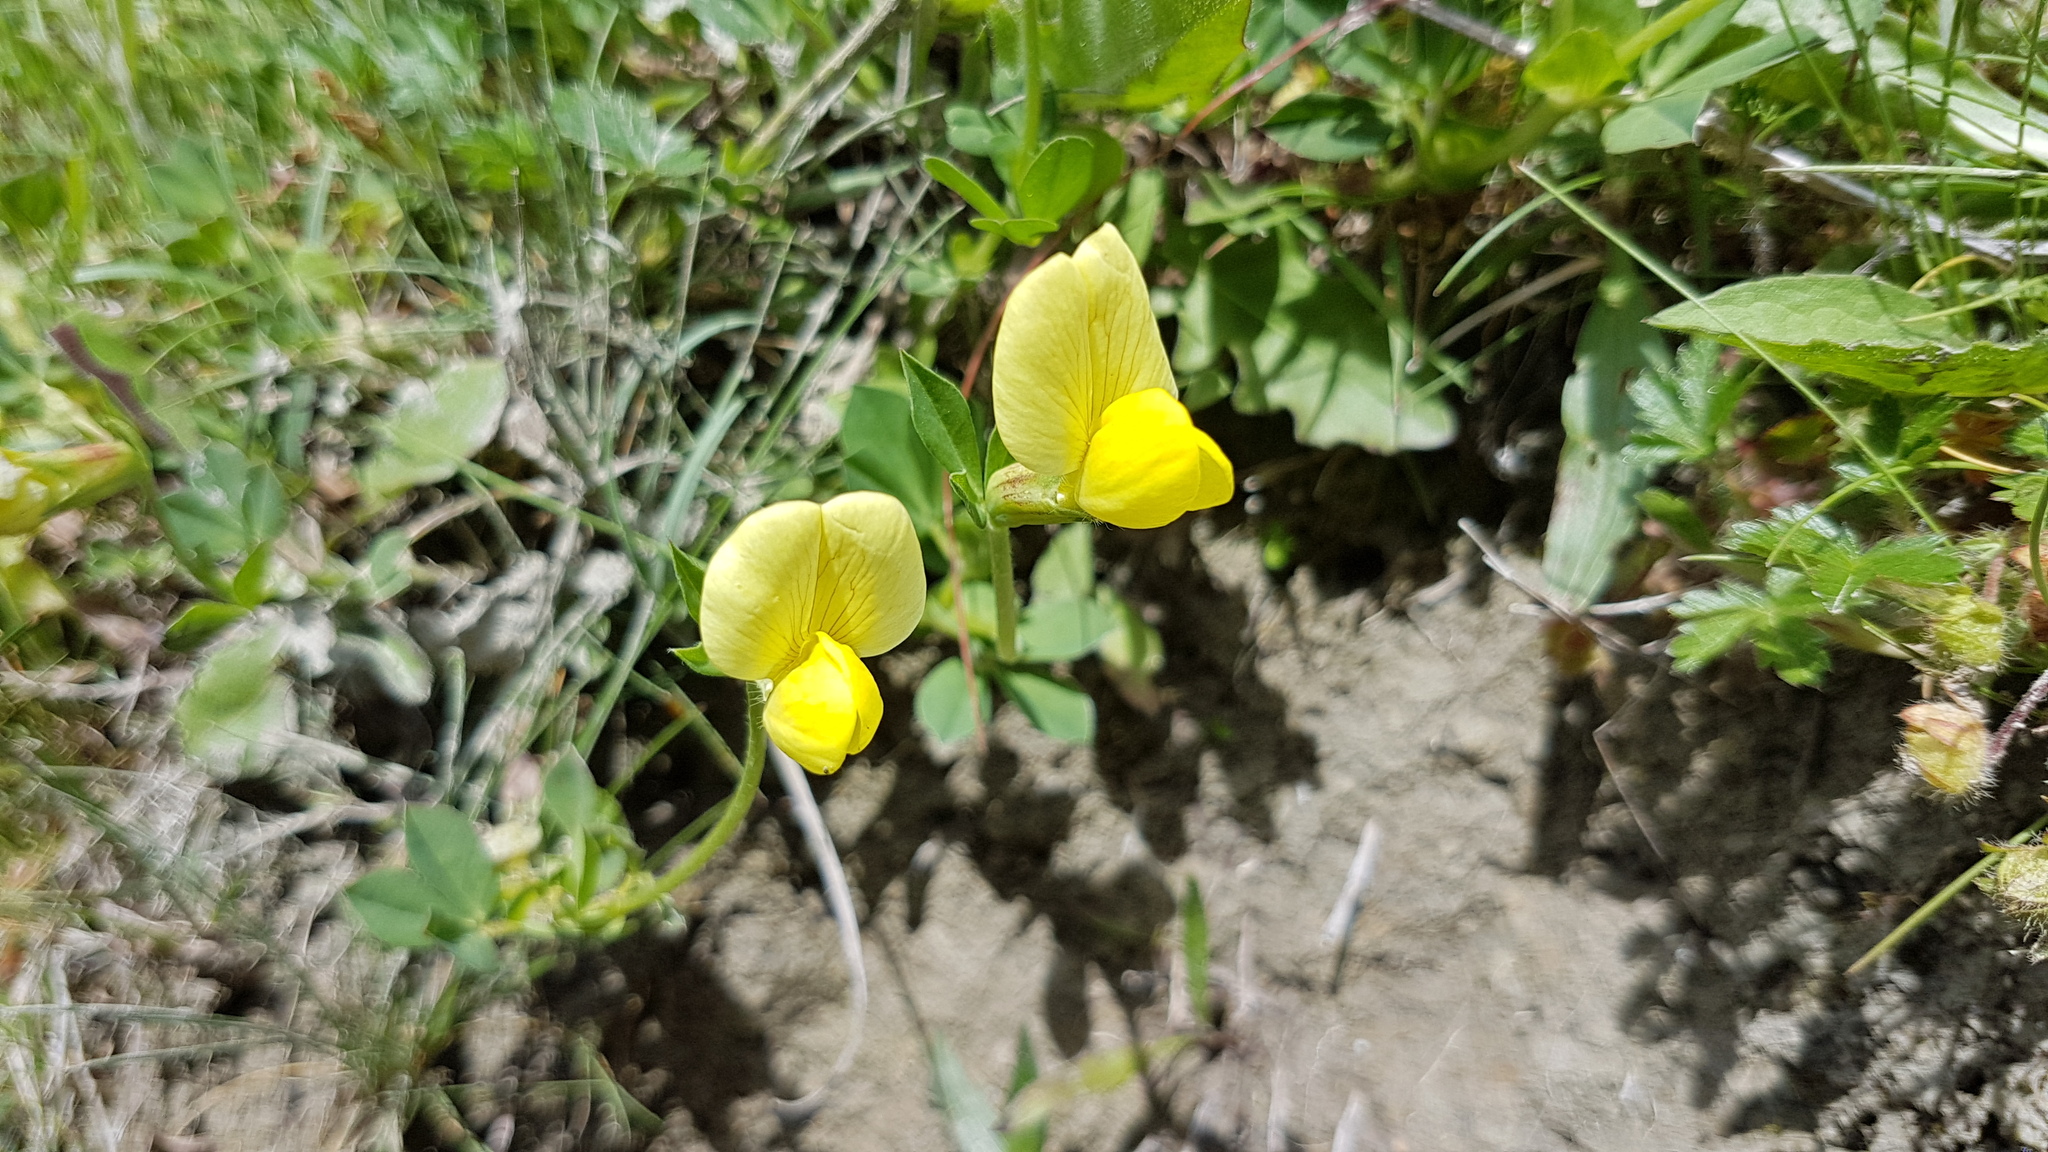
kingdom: Plantae
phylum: Tracheophyta
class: Magnoliopsida
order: Fabales
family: Fabaceae
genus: Lotus
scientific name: Lotus maritimus
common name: Dragon's-teeth
